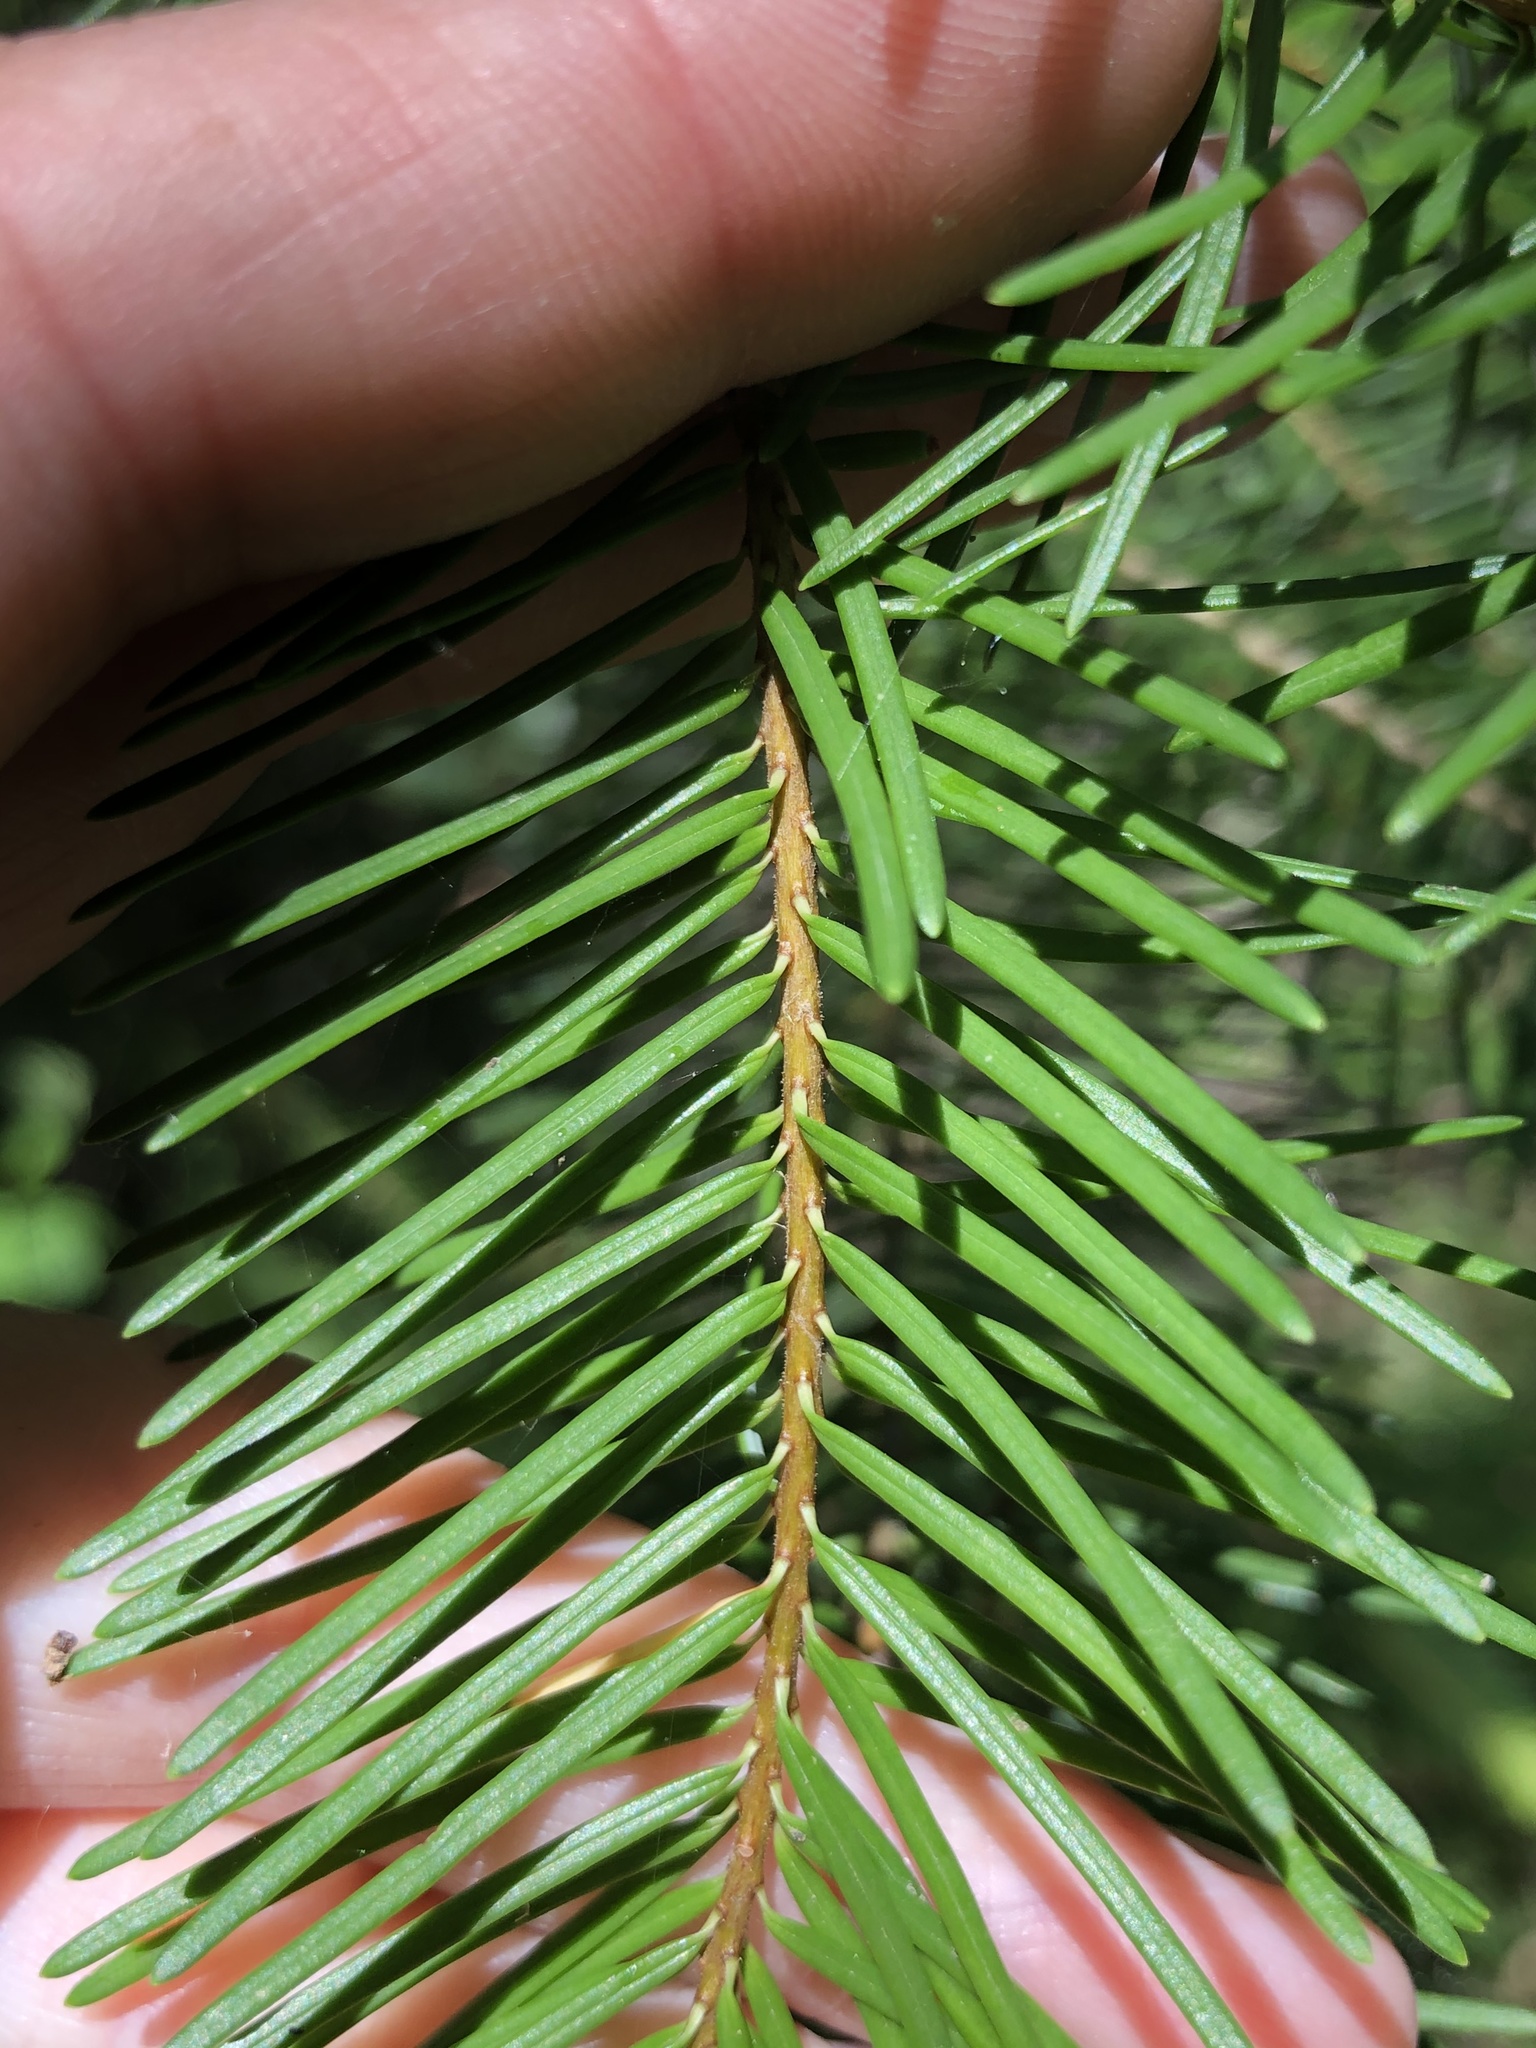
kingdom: Plantae
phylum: Tracheophyta
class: Pinopsida
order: Pinales
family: Pinaceae
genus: Pseudotsuga
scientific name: Pseudotsuga menziesii
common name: Douglas fir
